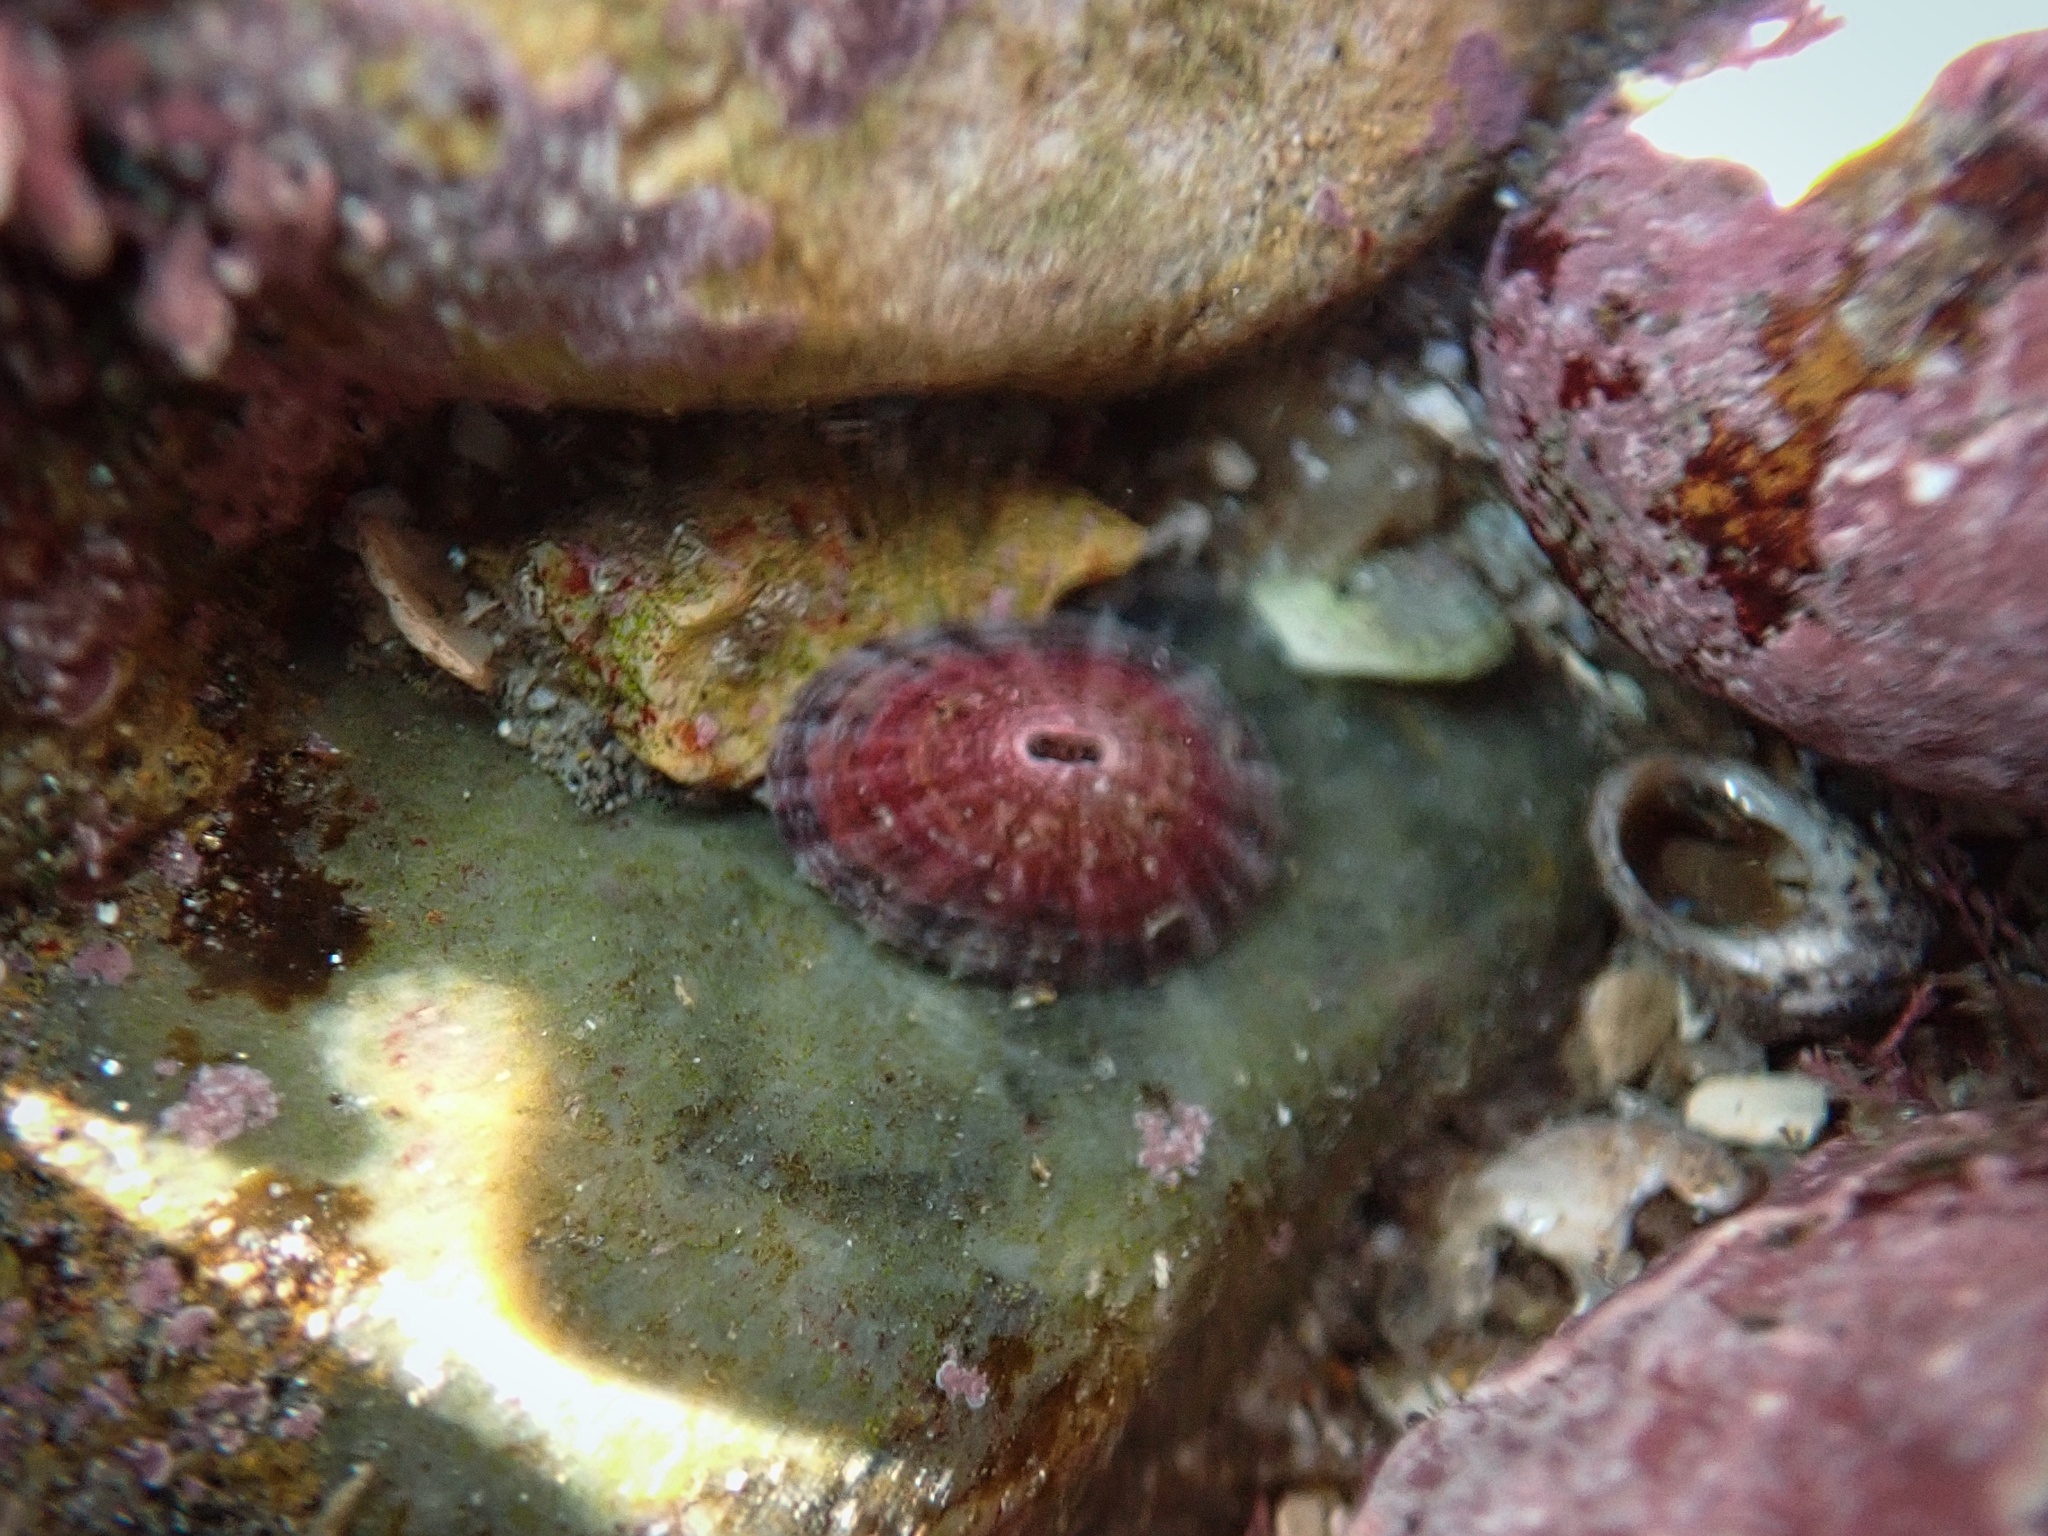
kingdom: Animalia
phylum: Mollusca
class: Gastropoda
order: Lepetellida
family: Fissurellidae
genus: Fissurella
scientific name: Fissurella volcano
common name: Volcano keyhole limpet
